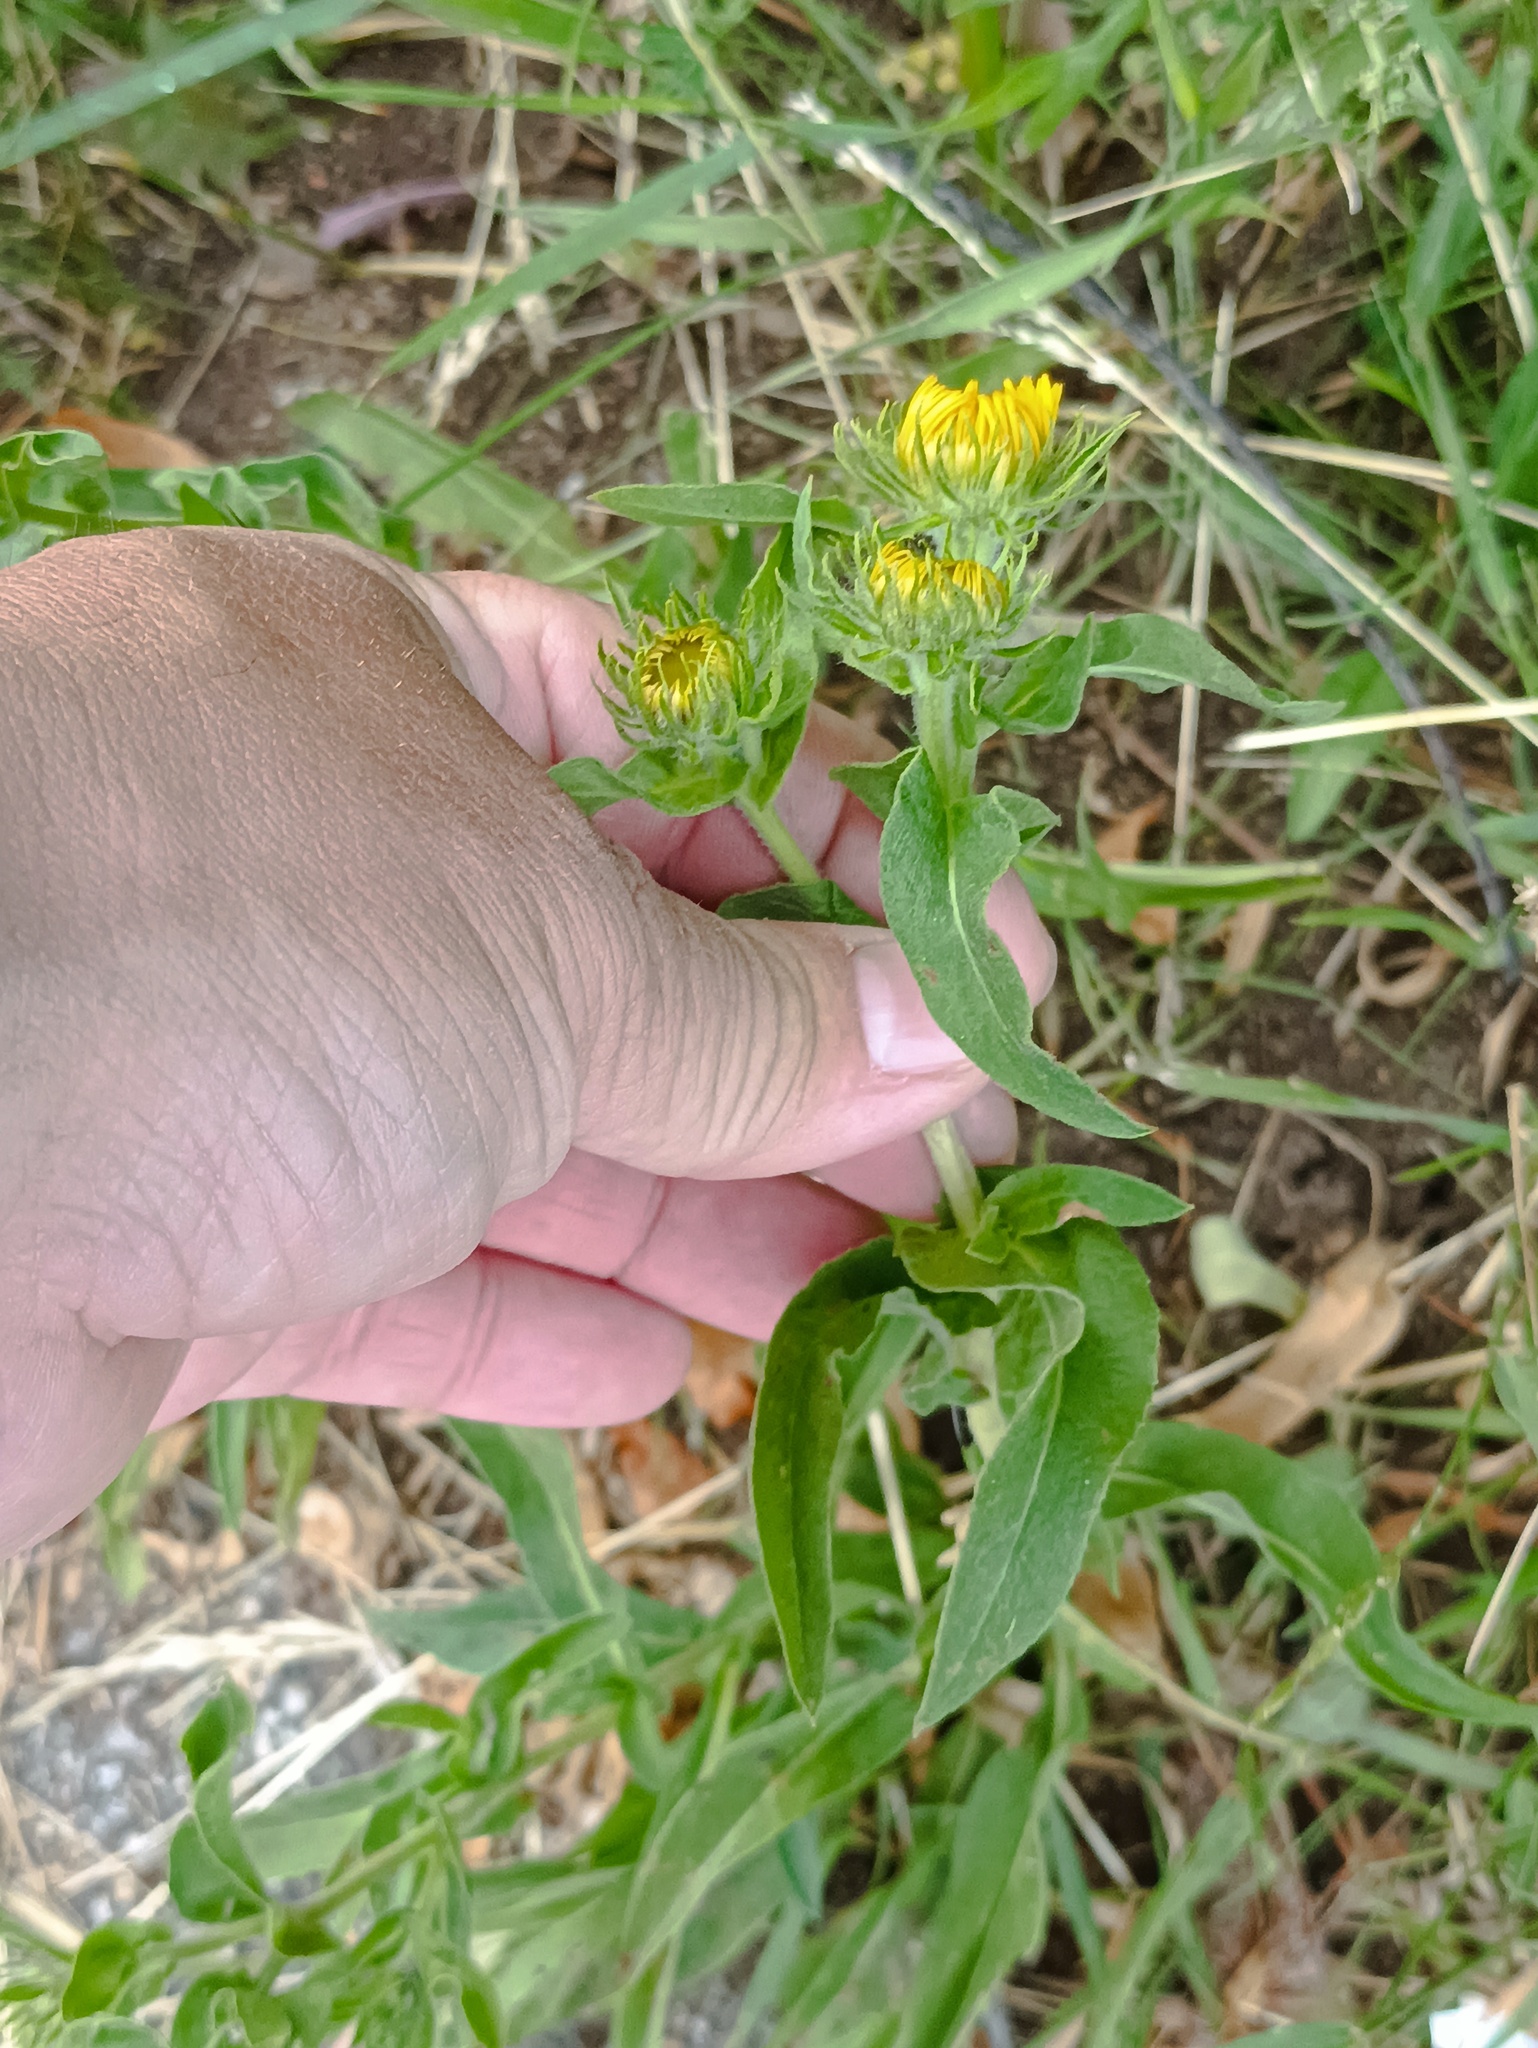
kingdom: Plantae
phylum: Tracheophyta
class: Magnoliopsida
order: Asterales
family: Asteraceae
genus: Pentanema
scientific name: Pentanema britannicum
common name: British elecampane
